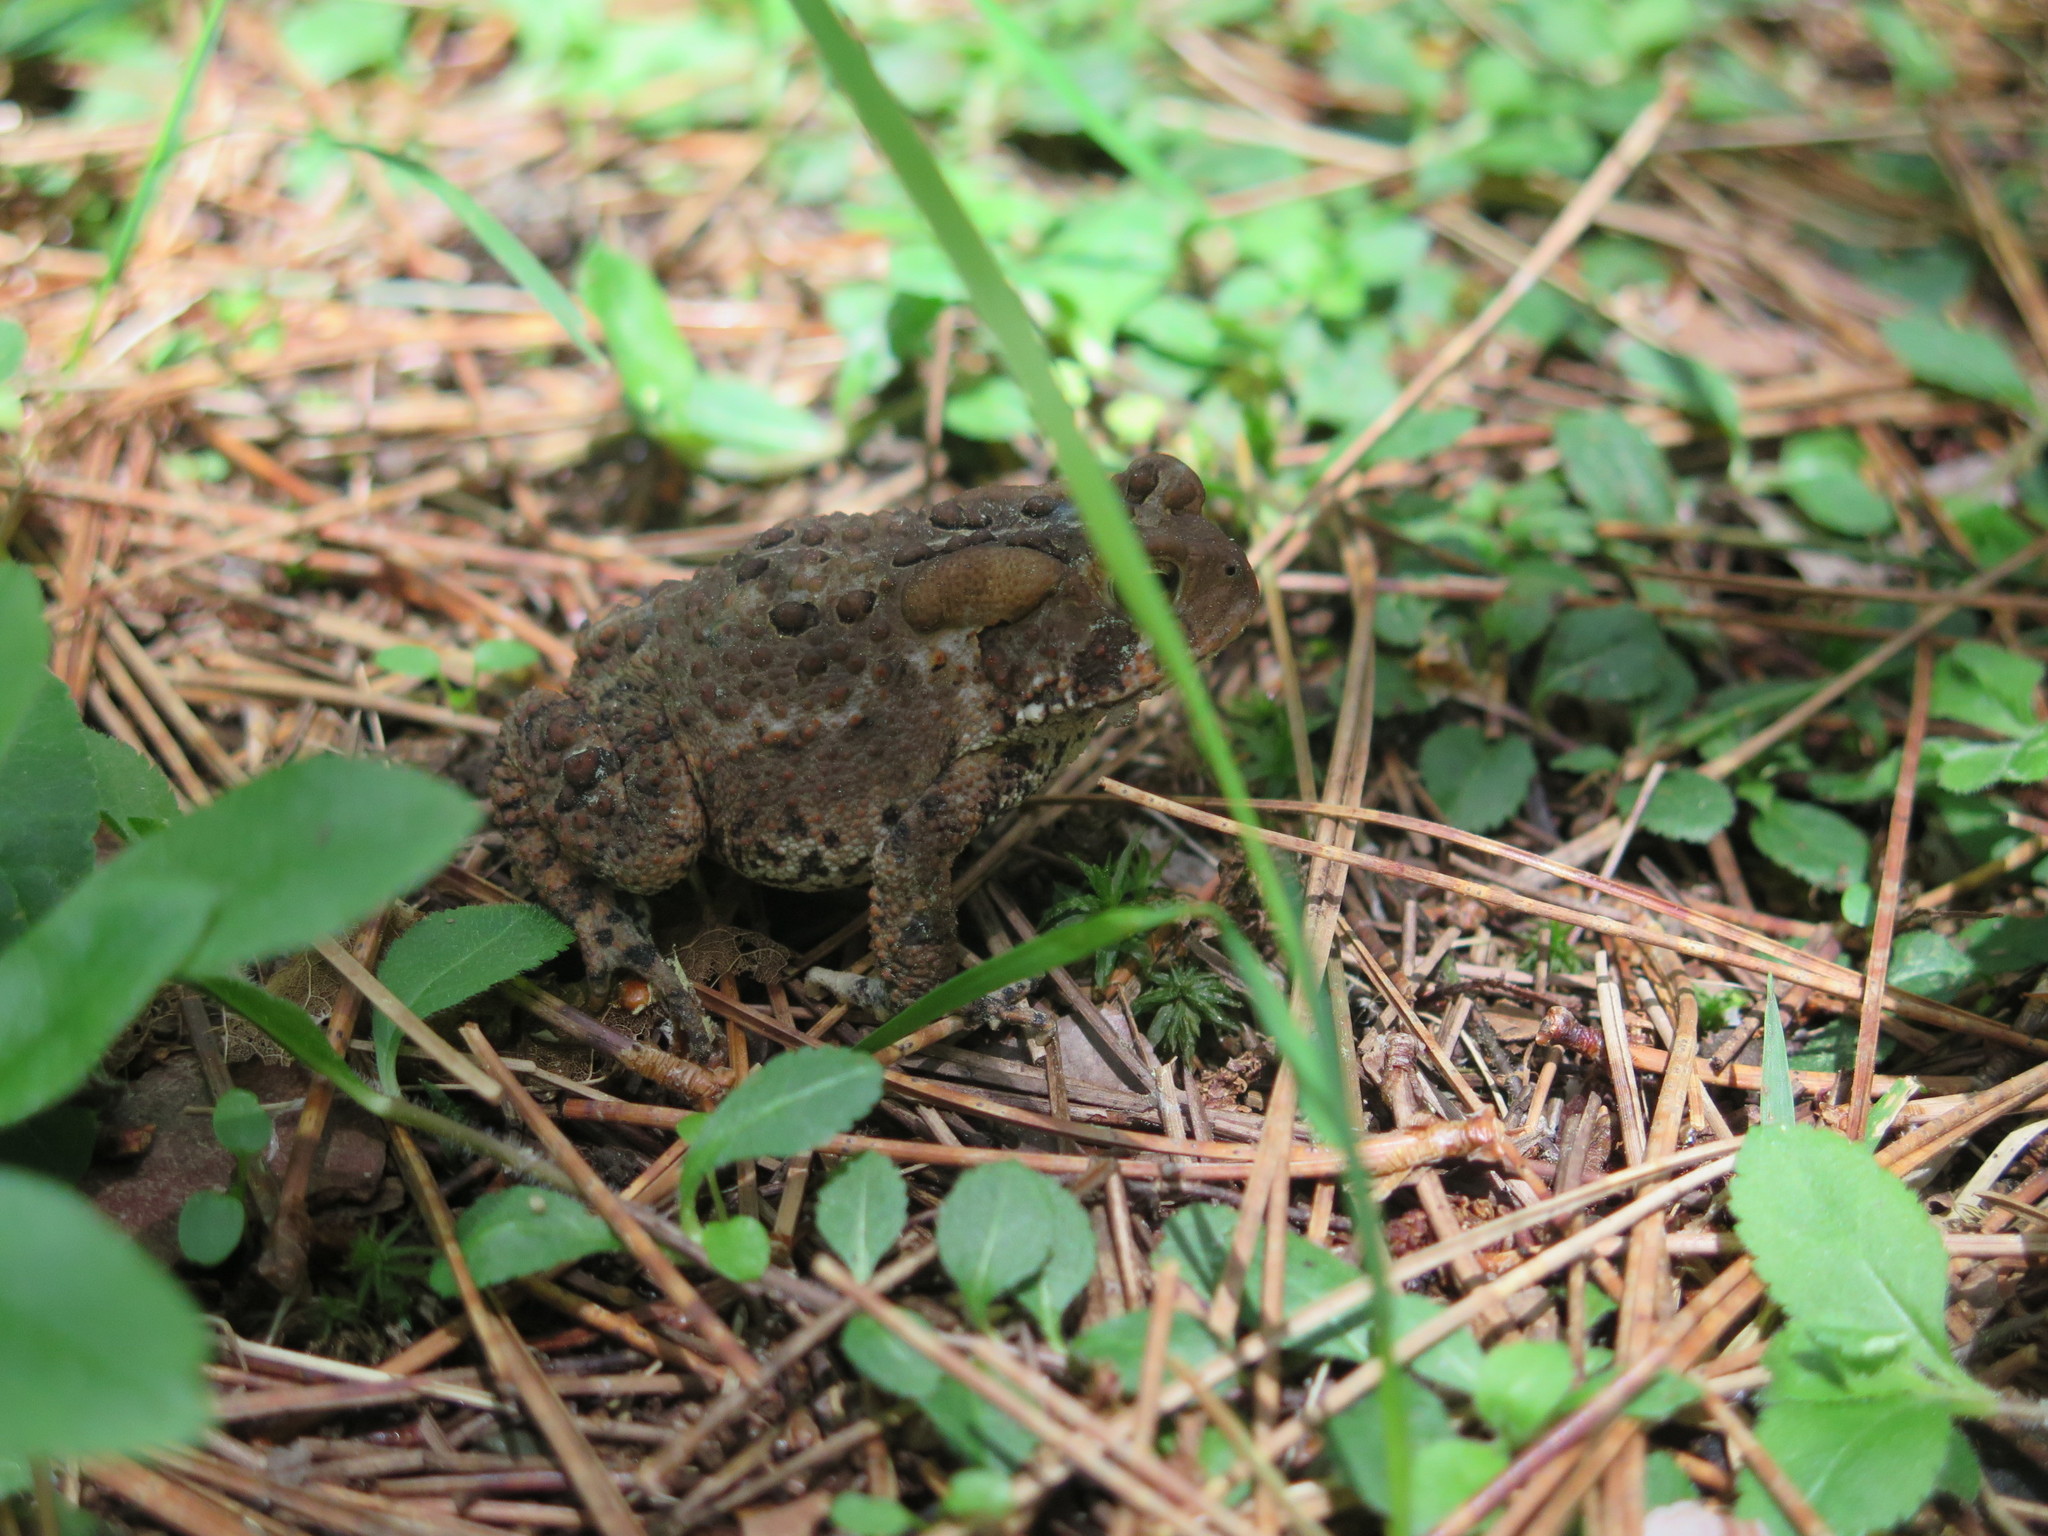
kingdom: Animalia
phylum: Chordata
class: Amphibia
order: Anura
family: Bufonidae
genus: Anaxyrus
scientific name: Anaxyrus americanus
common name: American toad
